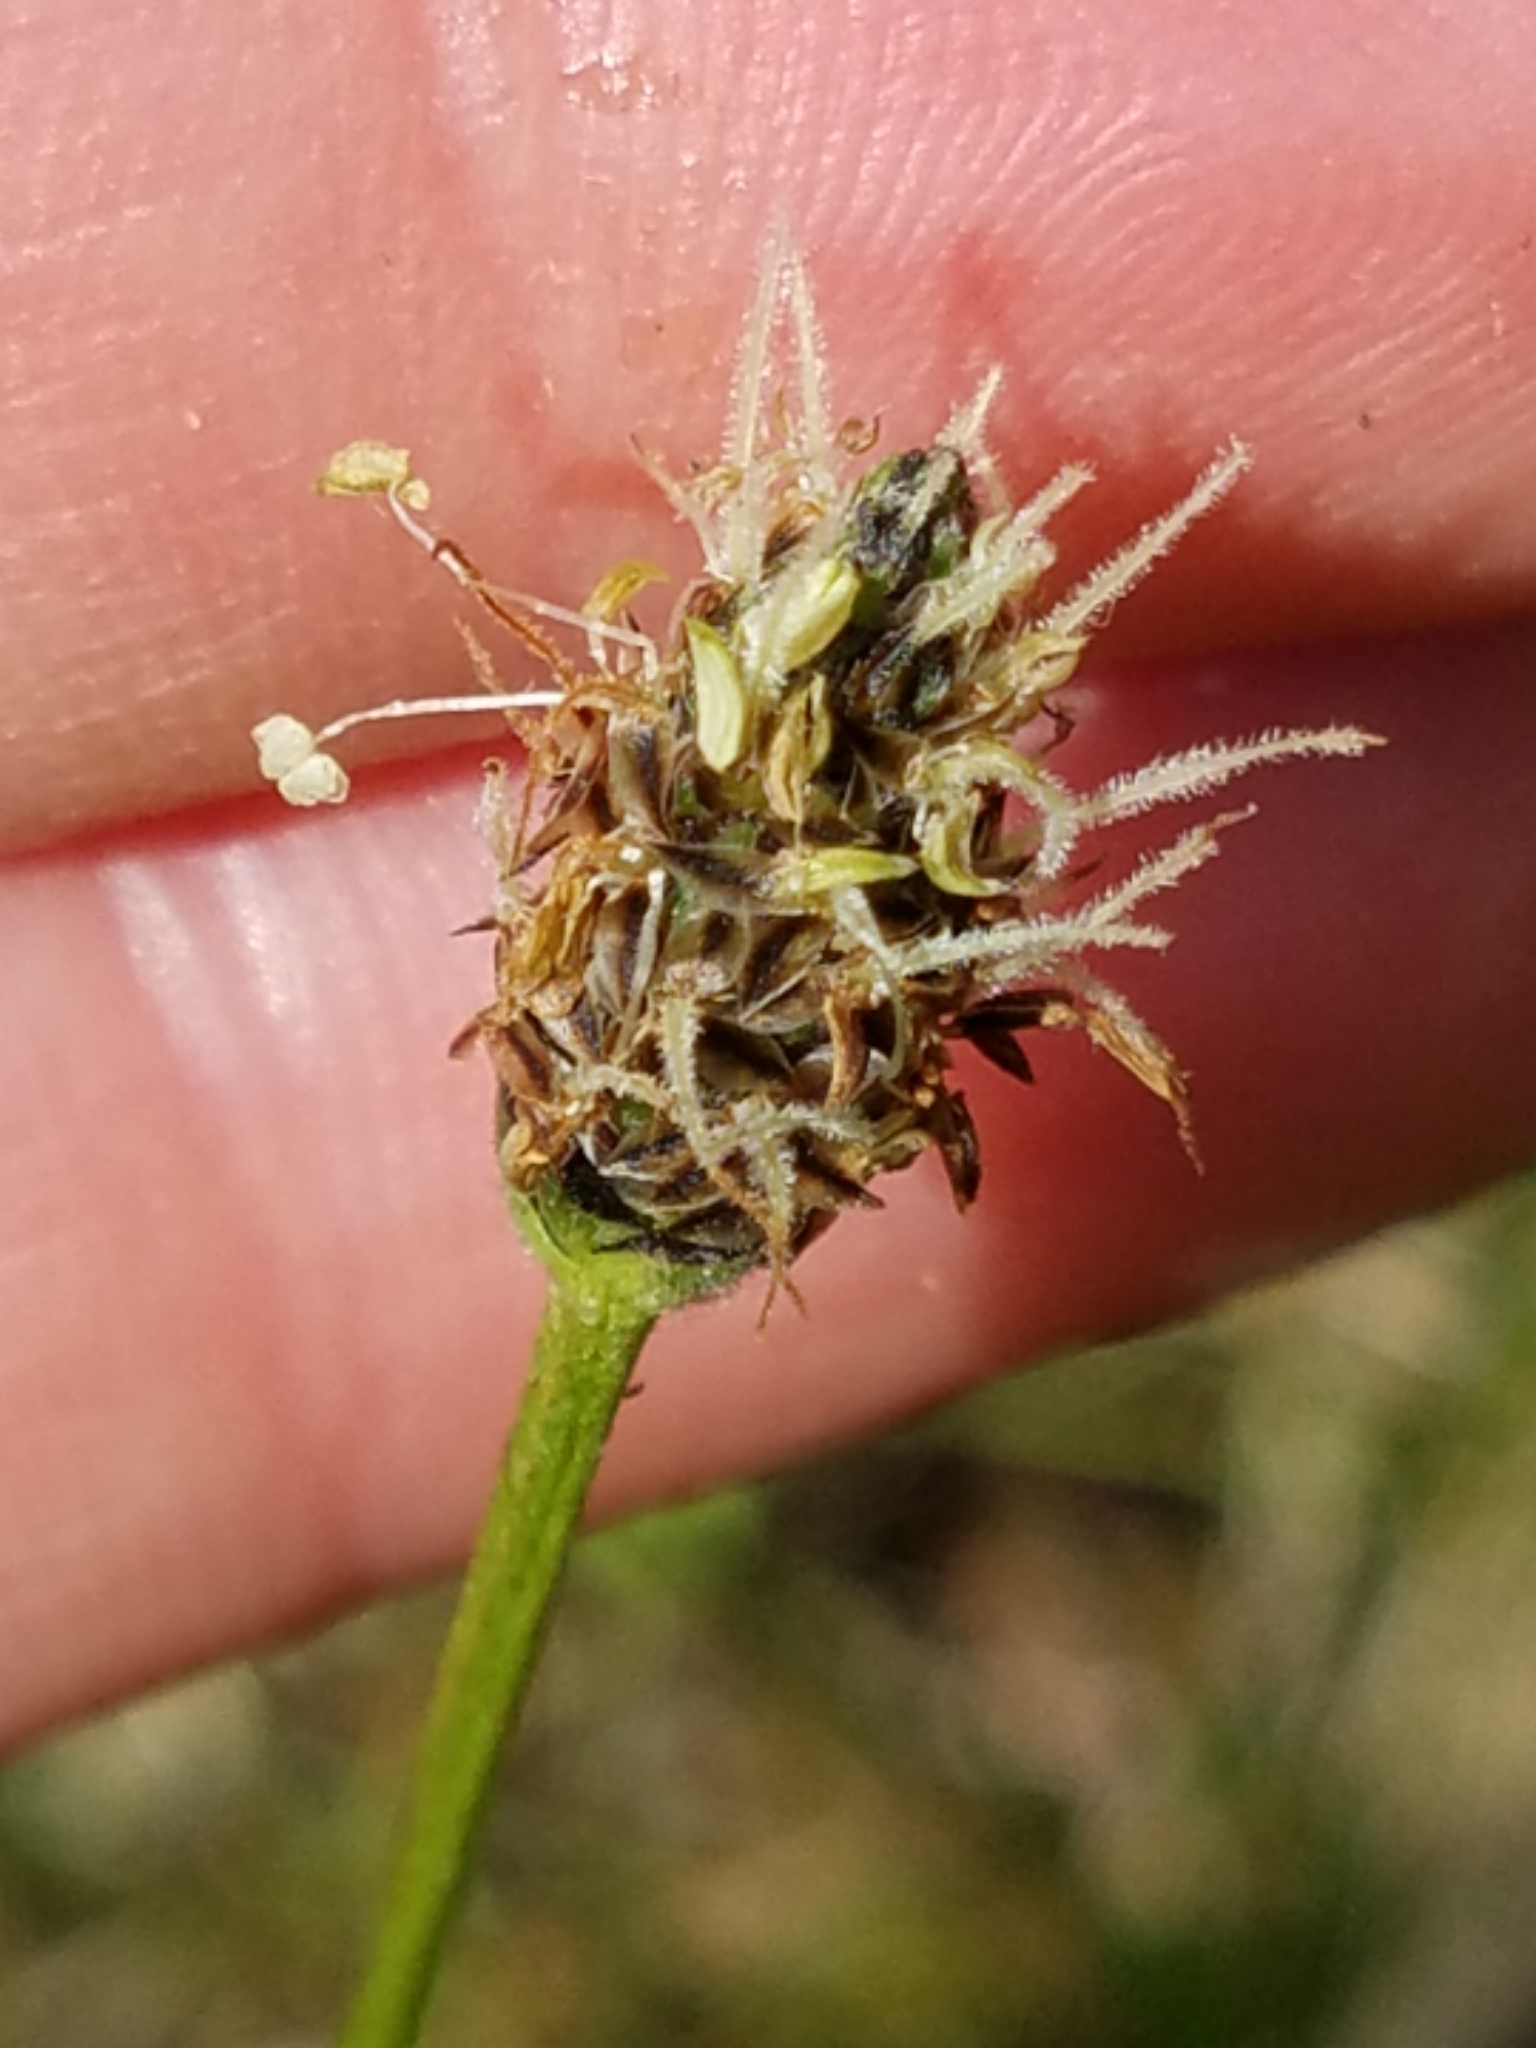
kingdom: Plantae
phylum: Tracheophyta
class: Magnoliopsida
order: Lamiales
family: Plantaginaceae
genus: Plantago
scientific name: Plantago lanceolata
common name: Ribwort plantain
